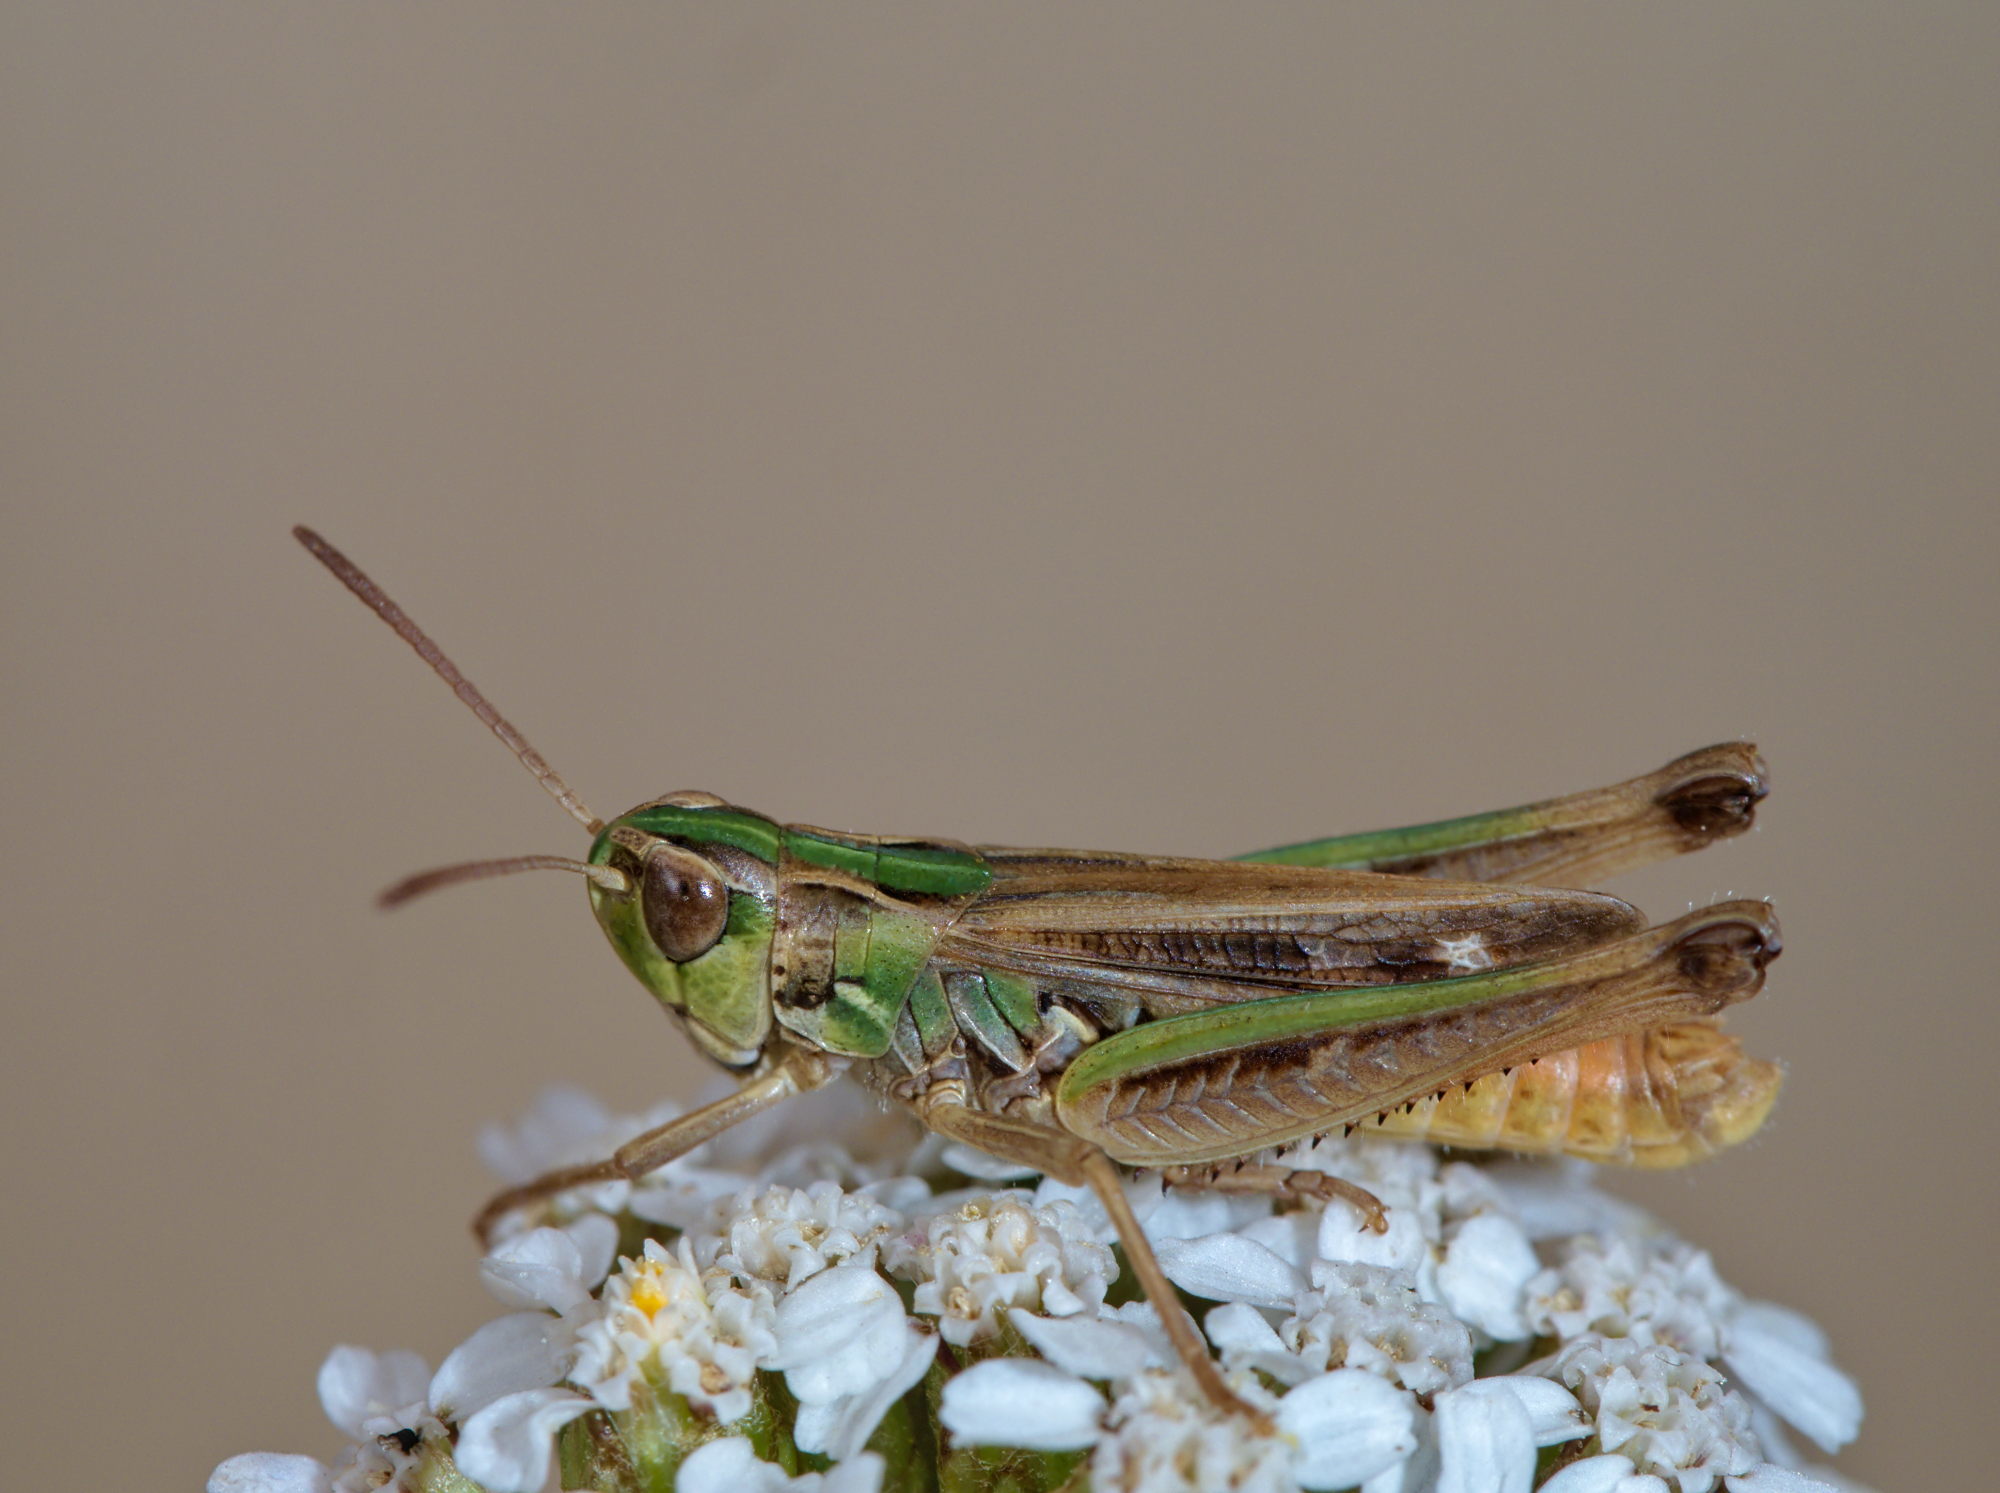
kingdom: Animalia
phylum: Arthropoda
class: Insecta
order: Orthoptera
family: Acrididae
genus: Stenobothrus
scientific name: Stenobothrus stigmaticus
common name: Lesser mottled grasshopper
